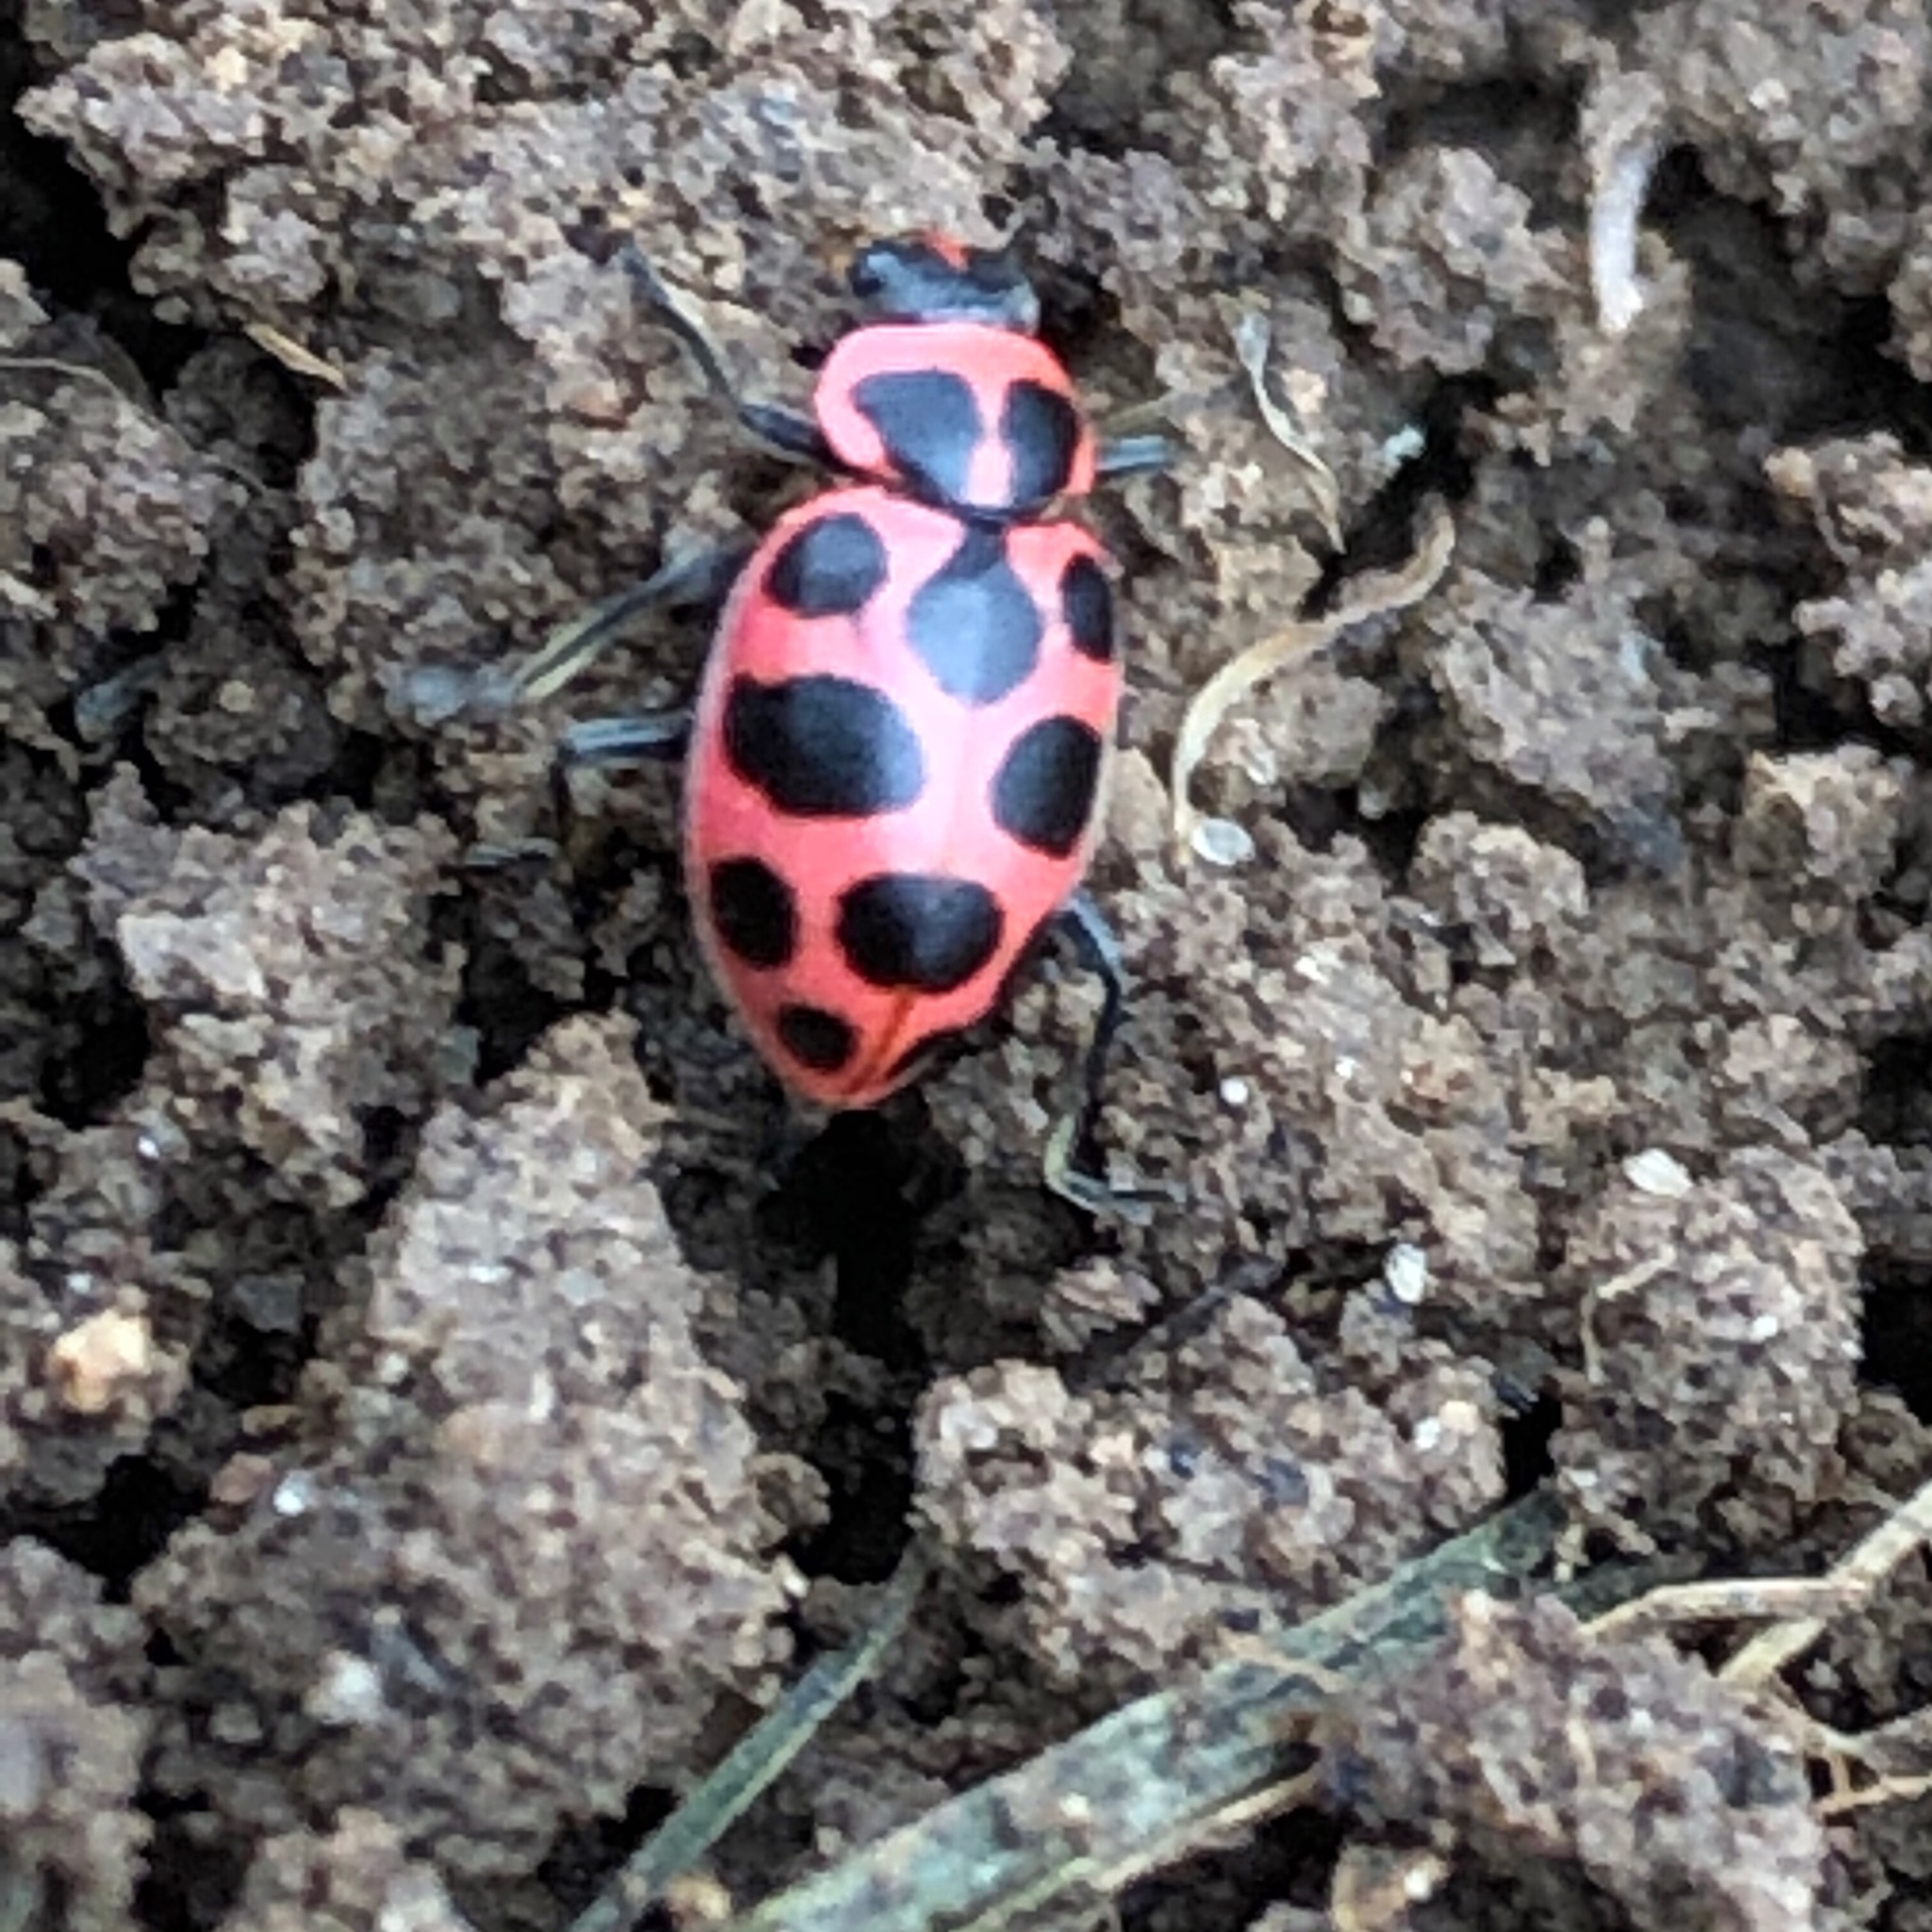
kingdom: Animalia
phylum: Arthropoda
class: Insecta
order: Coleoptera
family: Coccinellidae
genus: Coleomegilla
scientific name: Coleomegilla maculata
